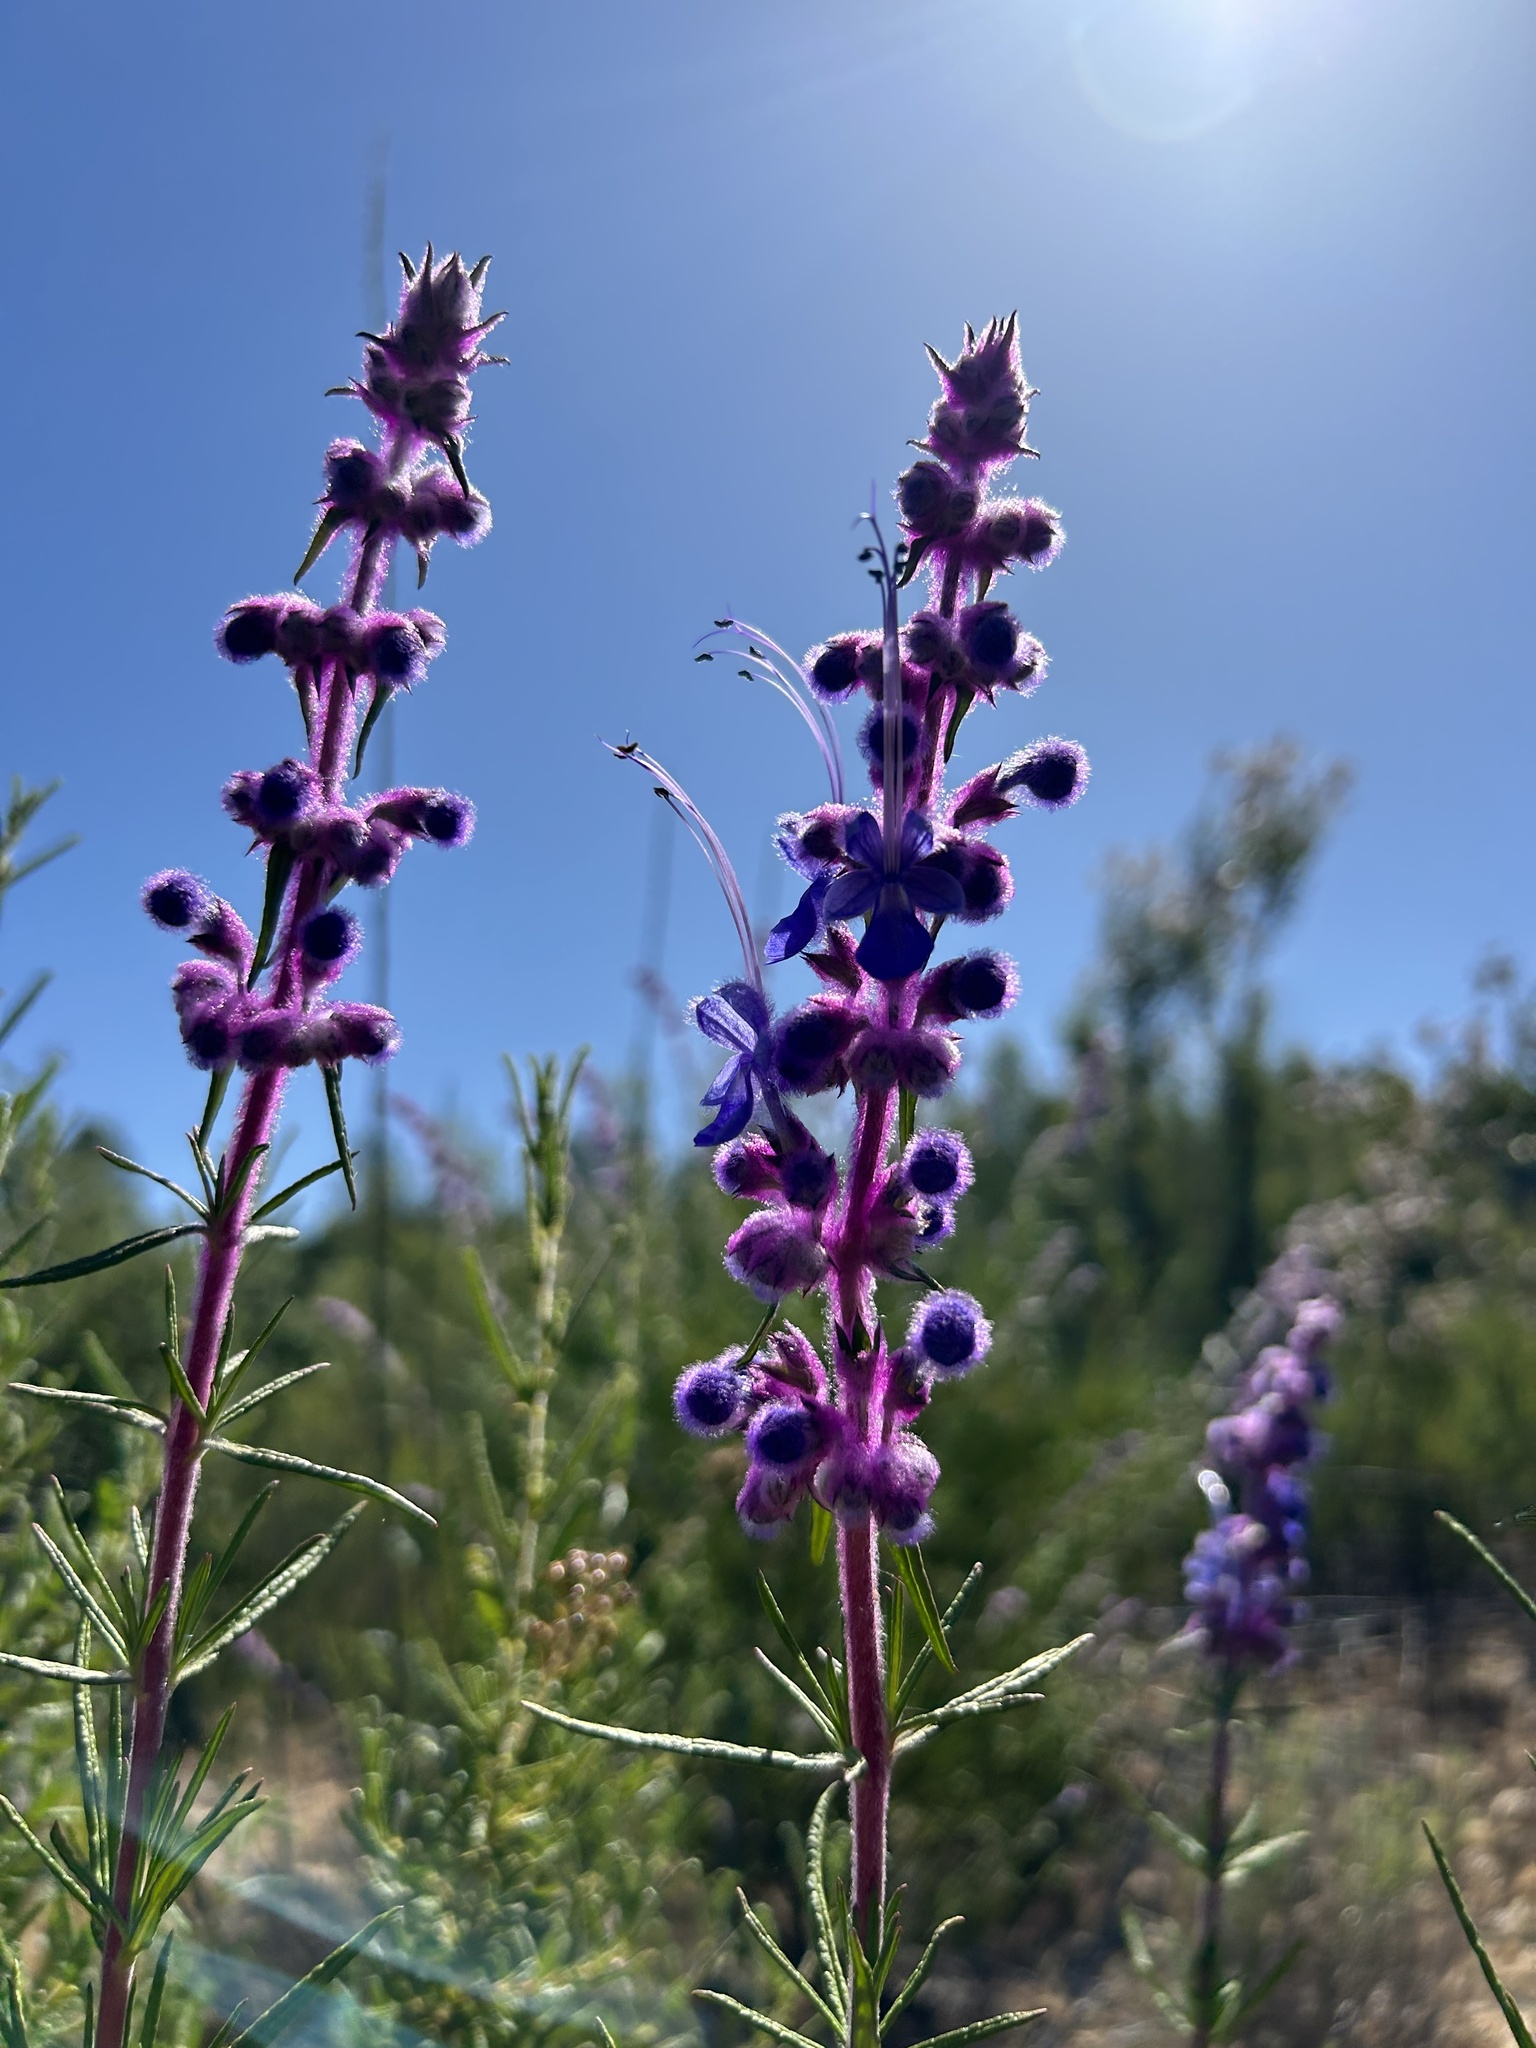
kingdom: Plantae
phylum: Tracheophyta
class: Magnoliopsida
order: Lamiales
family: Lamiaceae
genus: Trichostema
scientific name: Trichostema lanatum
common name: Woolly bluecurls
